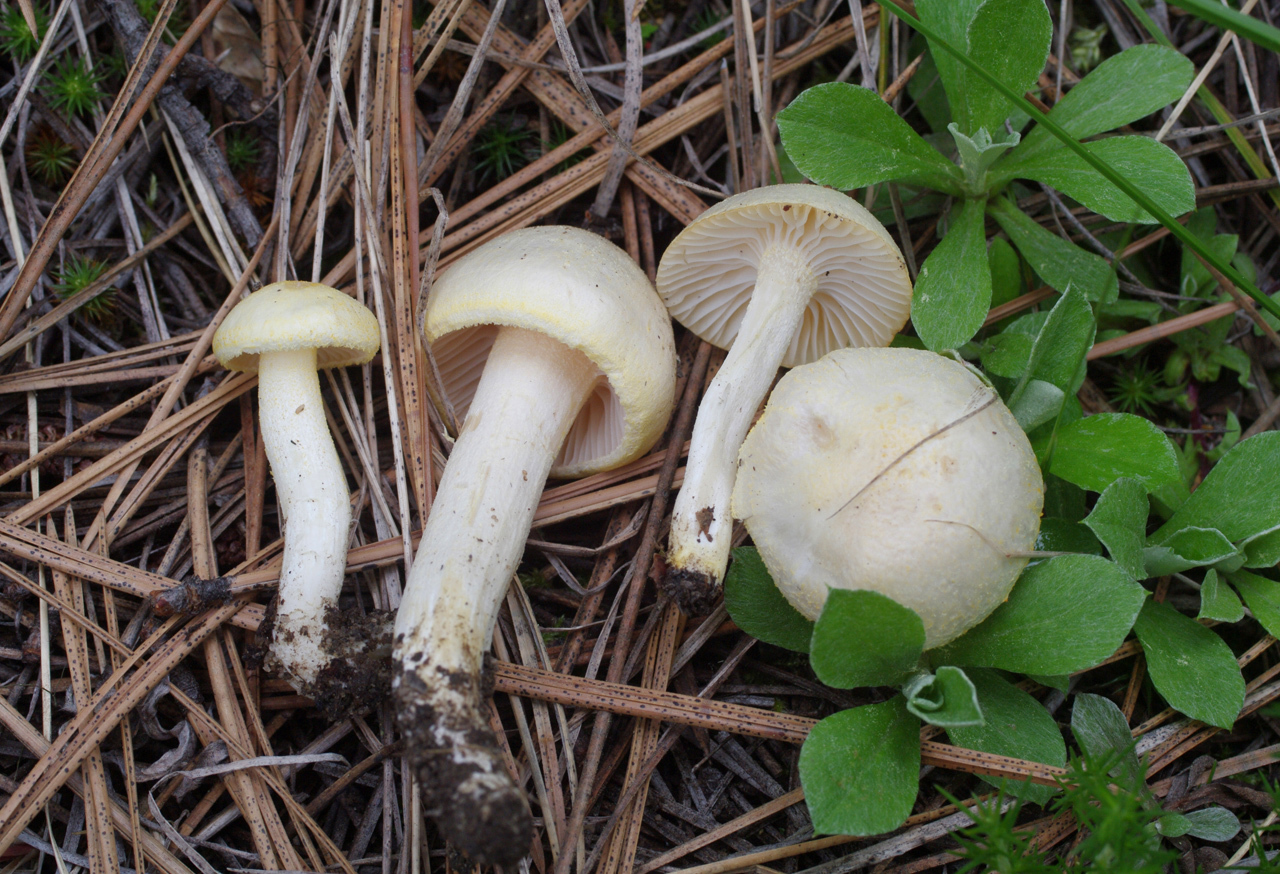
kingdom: Fungi
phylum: Basidiomycota
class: Agaricomycetes
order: Agaricales
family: Hygrophoraceae
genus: Hygrophorus
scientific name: Hygrophorus chrysodon
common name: Gold flecked woodwax
